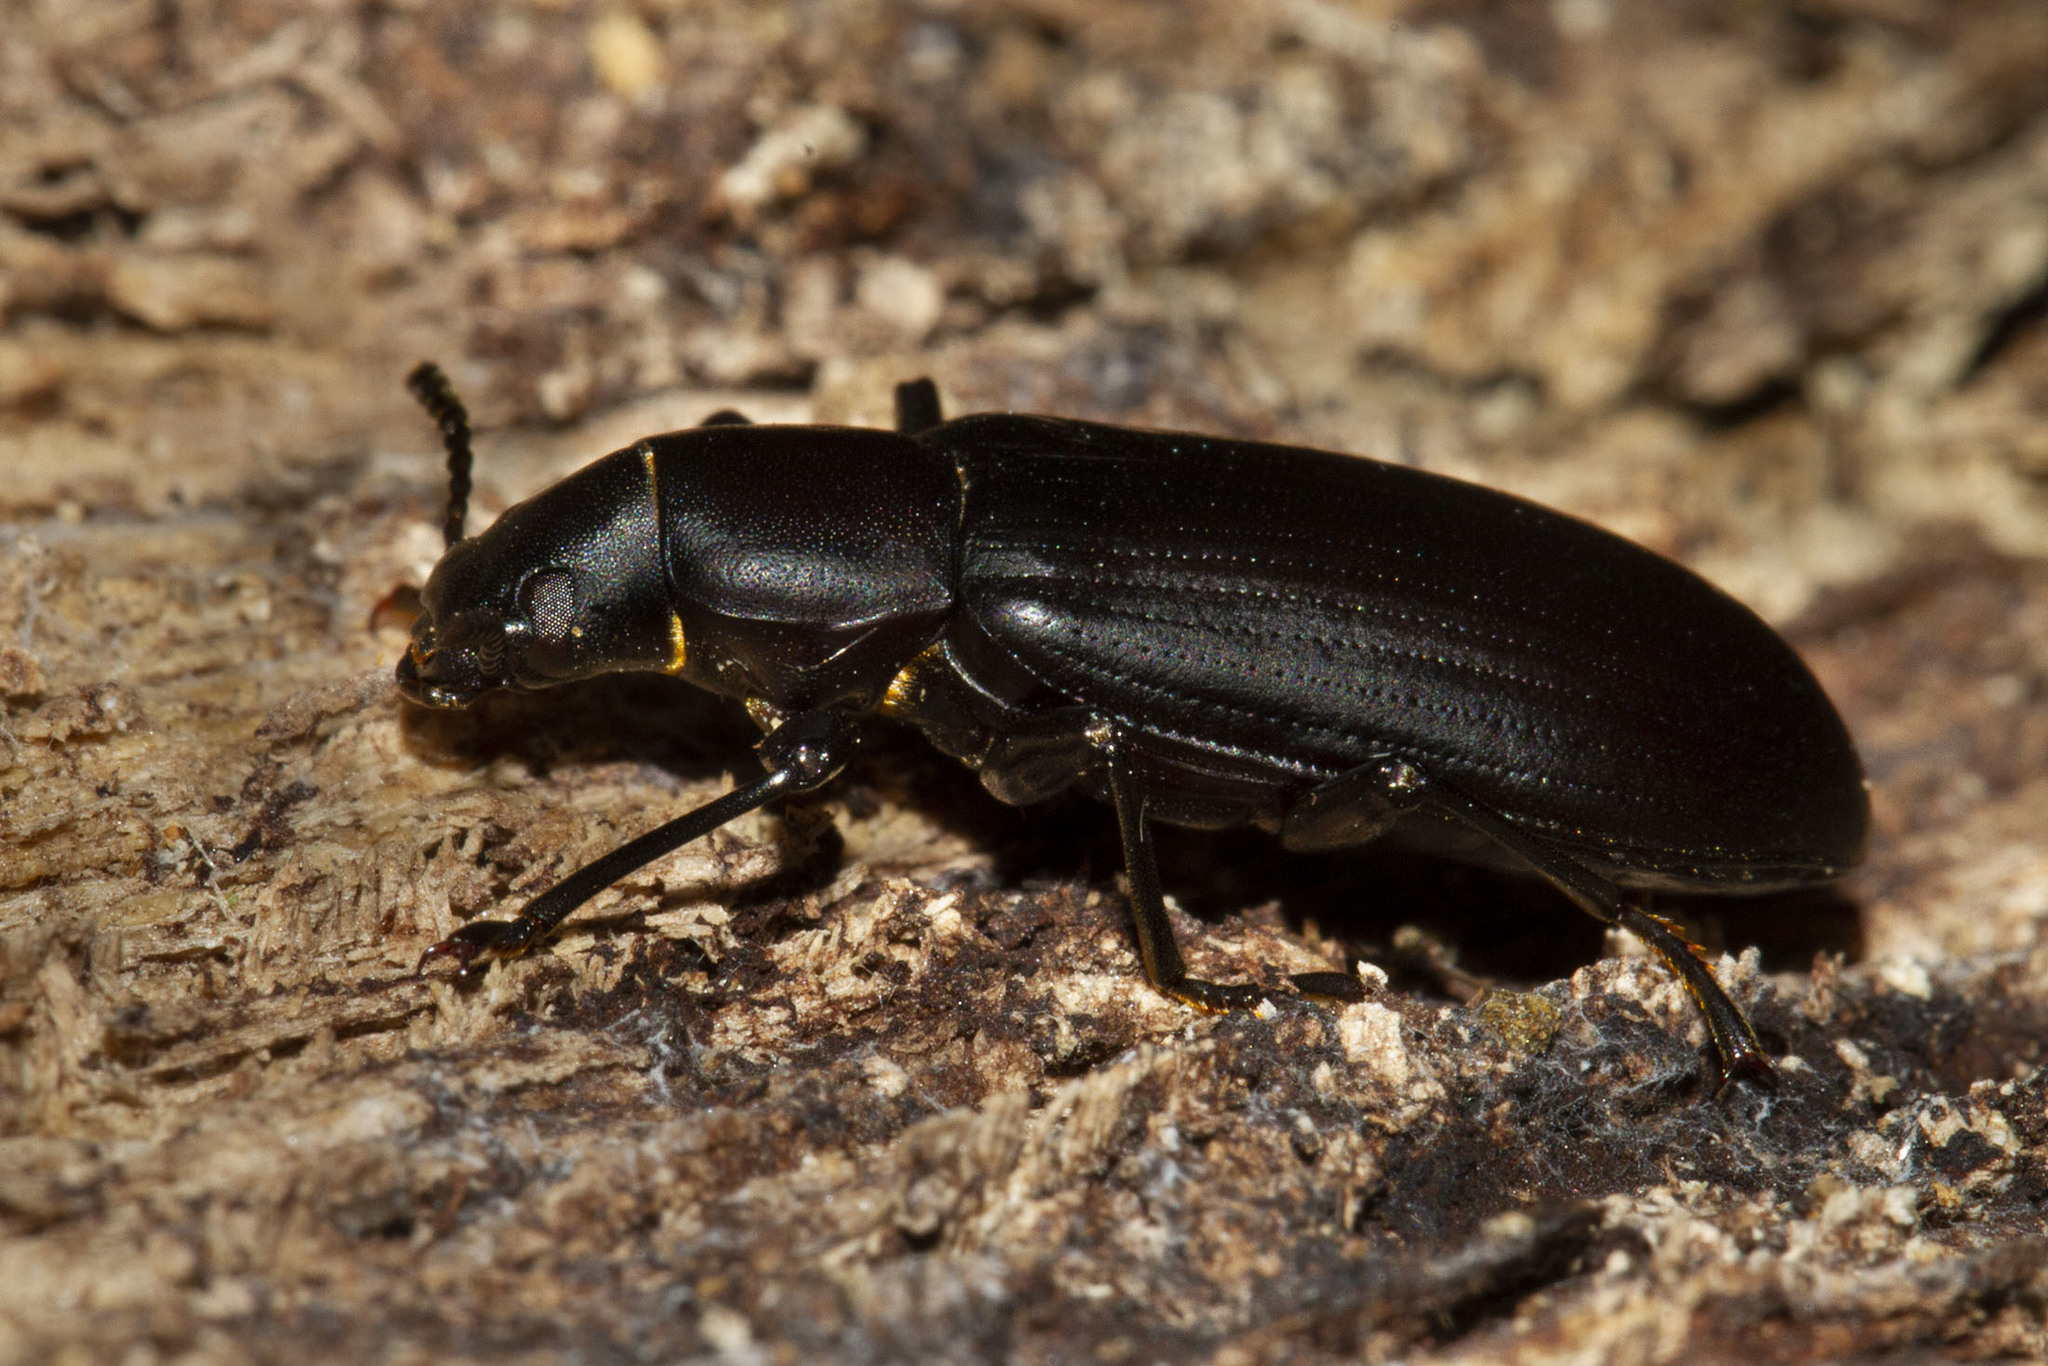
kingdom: Animalia
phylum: Arthropoda
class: Insecta
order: Coleoptera
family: Tenebrionidae
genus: Alobates
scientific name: Alobates pensylvanicus
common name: False mealworm beetle
